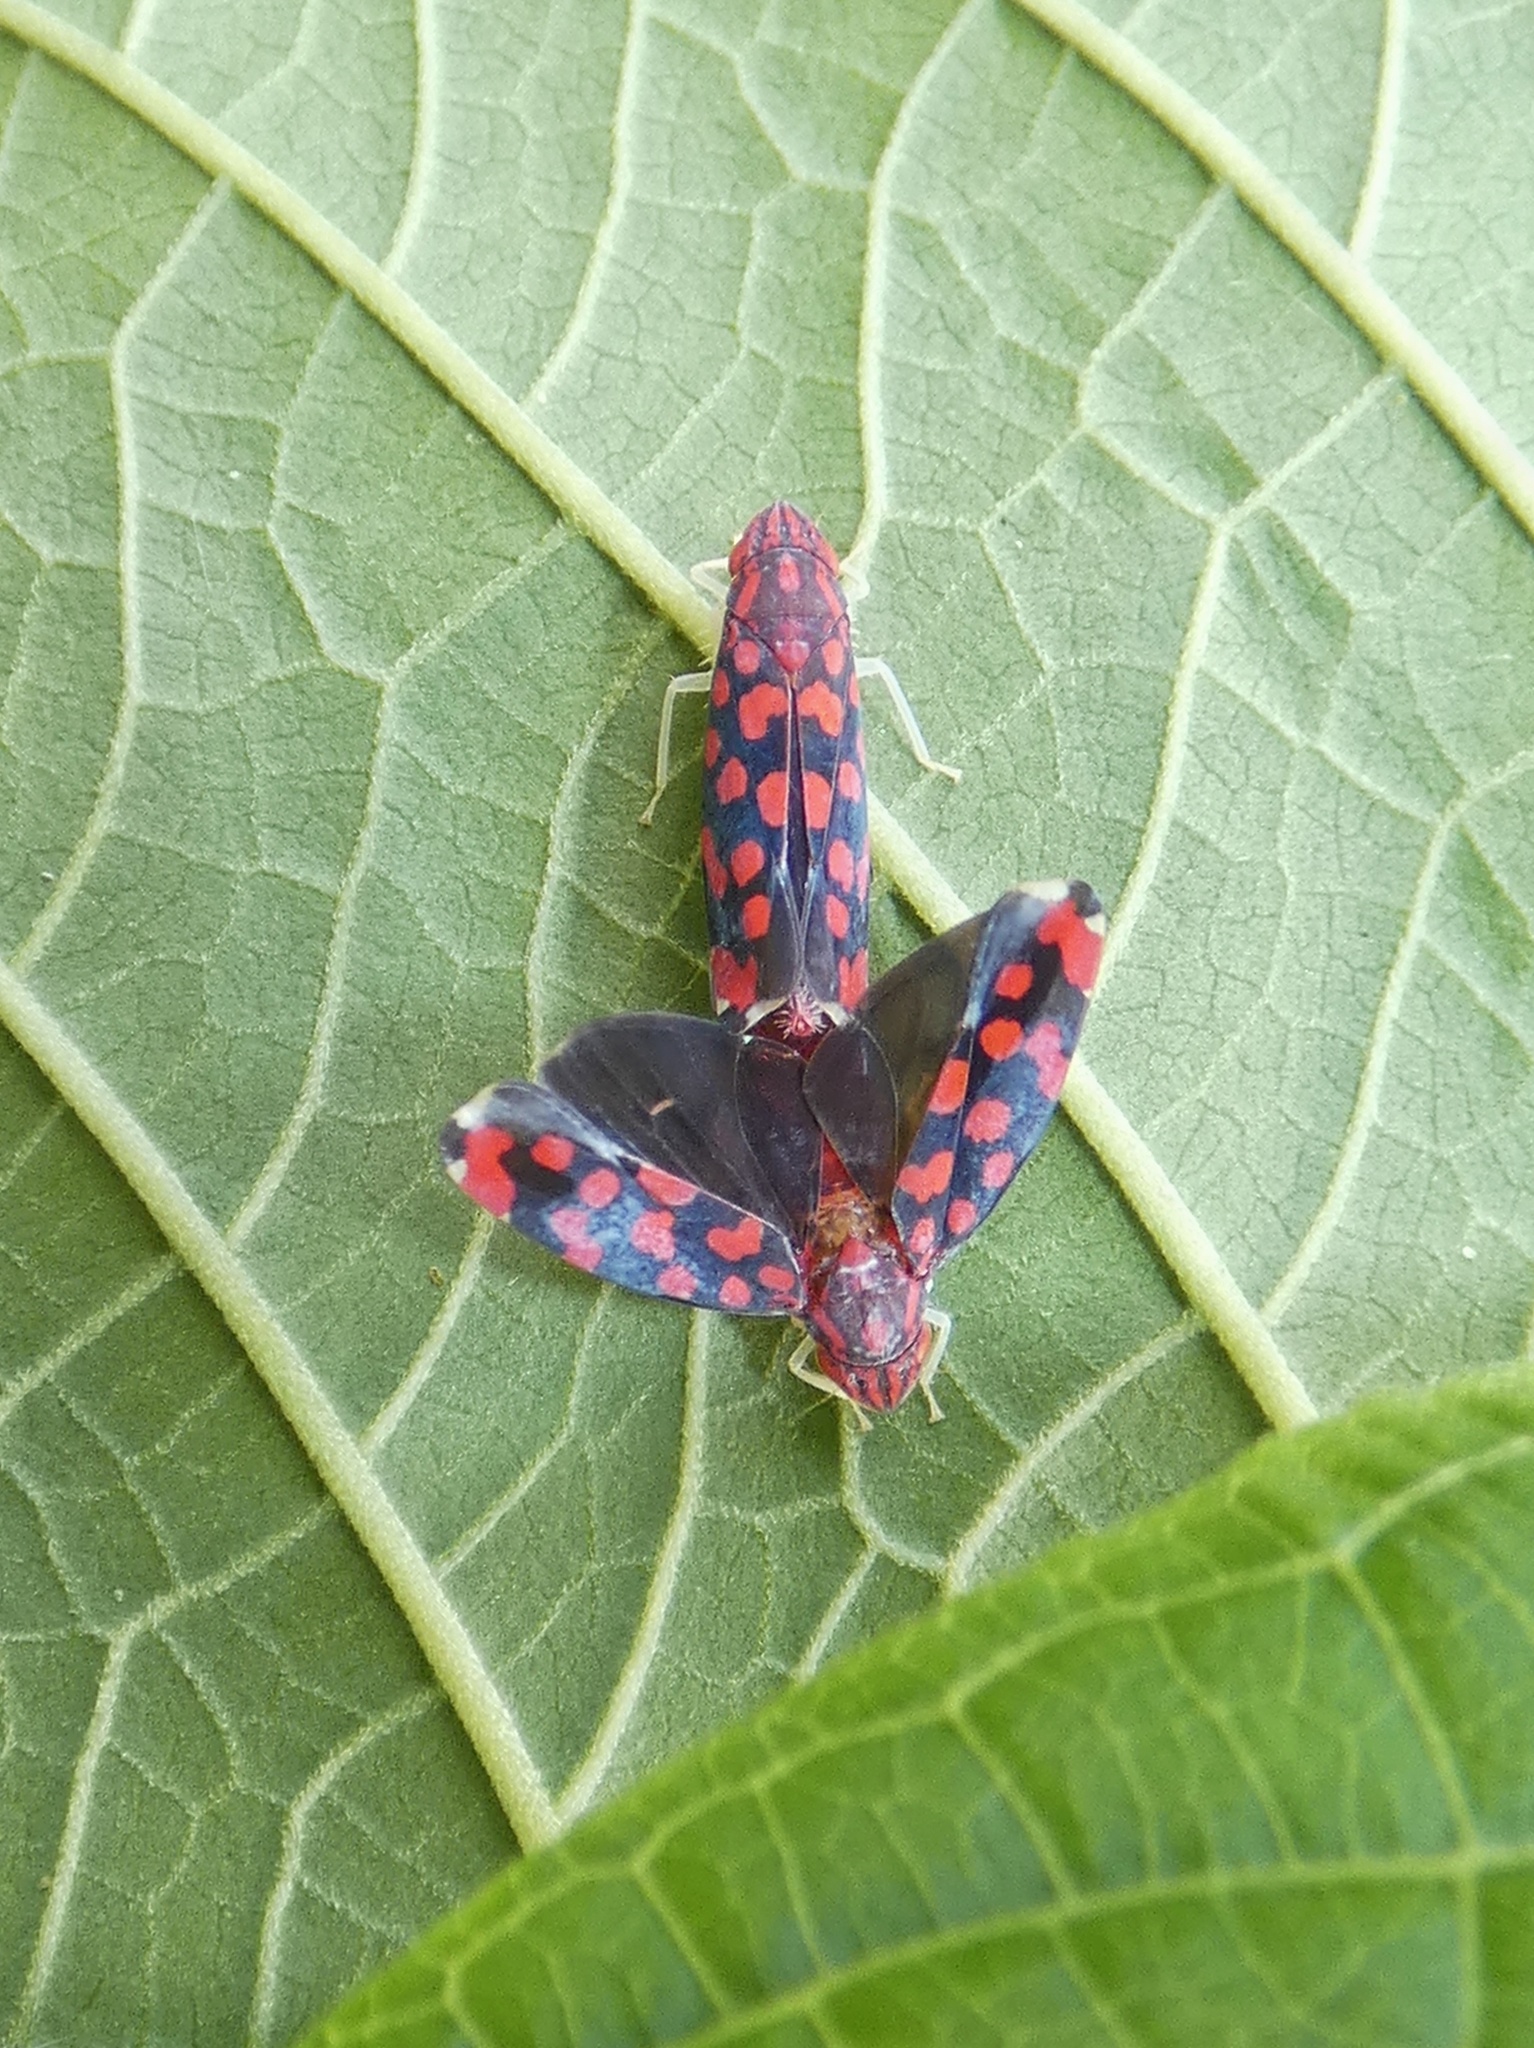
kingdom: Animalia
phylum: Arthropoda
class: Insecta
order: Hemiptera
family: Cicadellidae
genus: Ladoffa
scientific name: Ladoffa ignota
